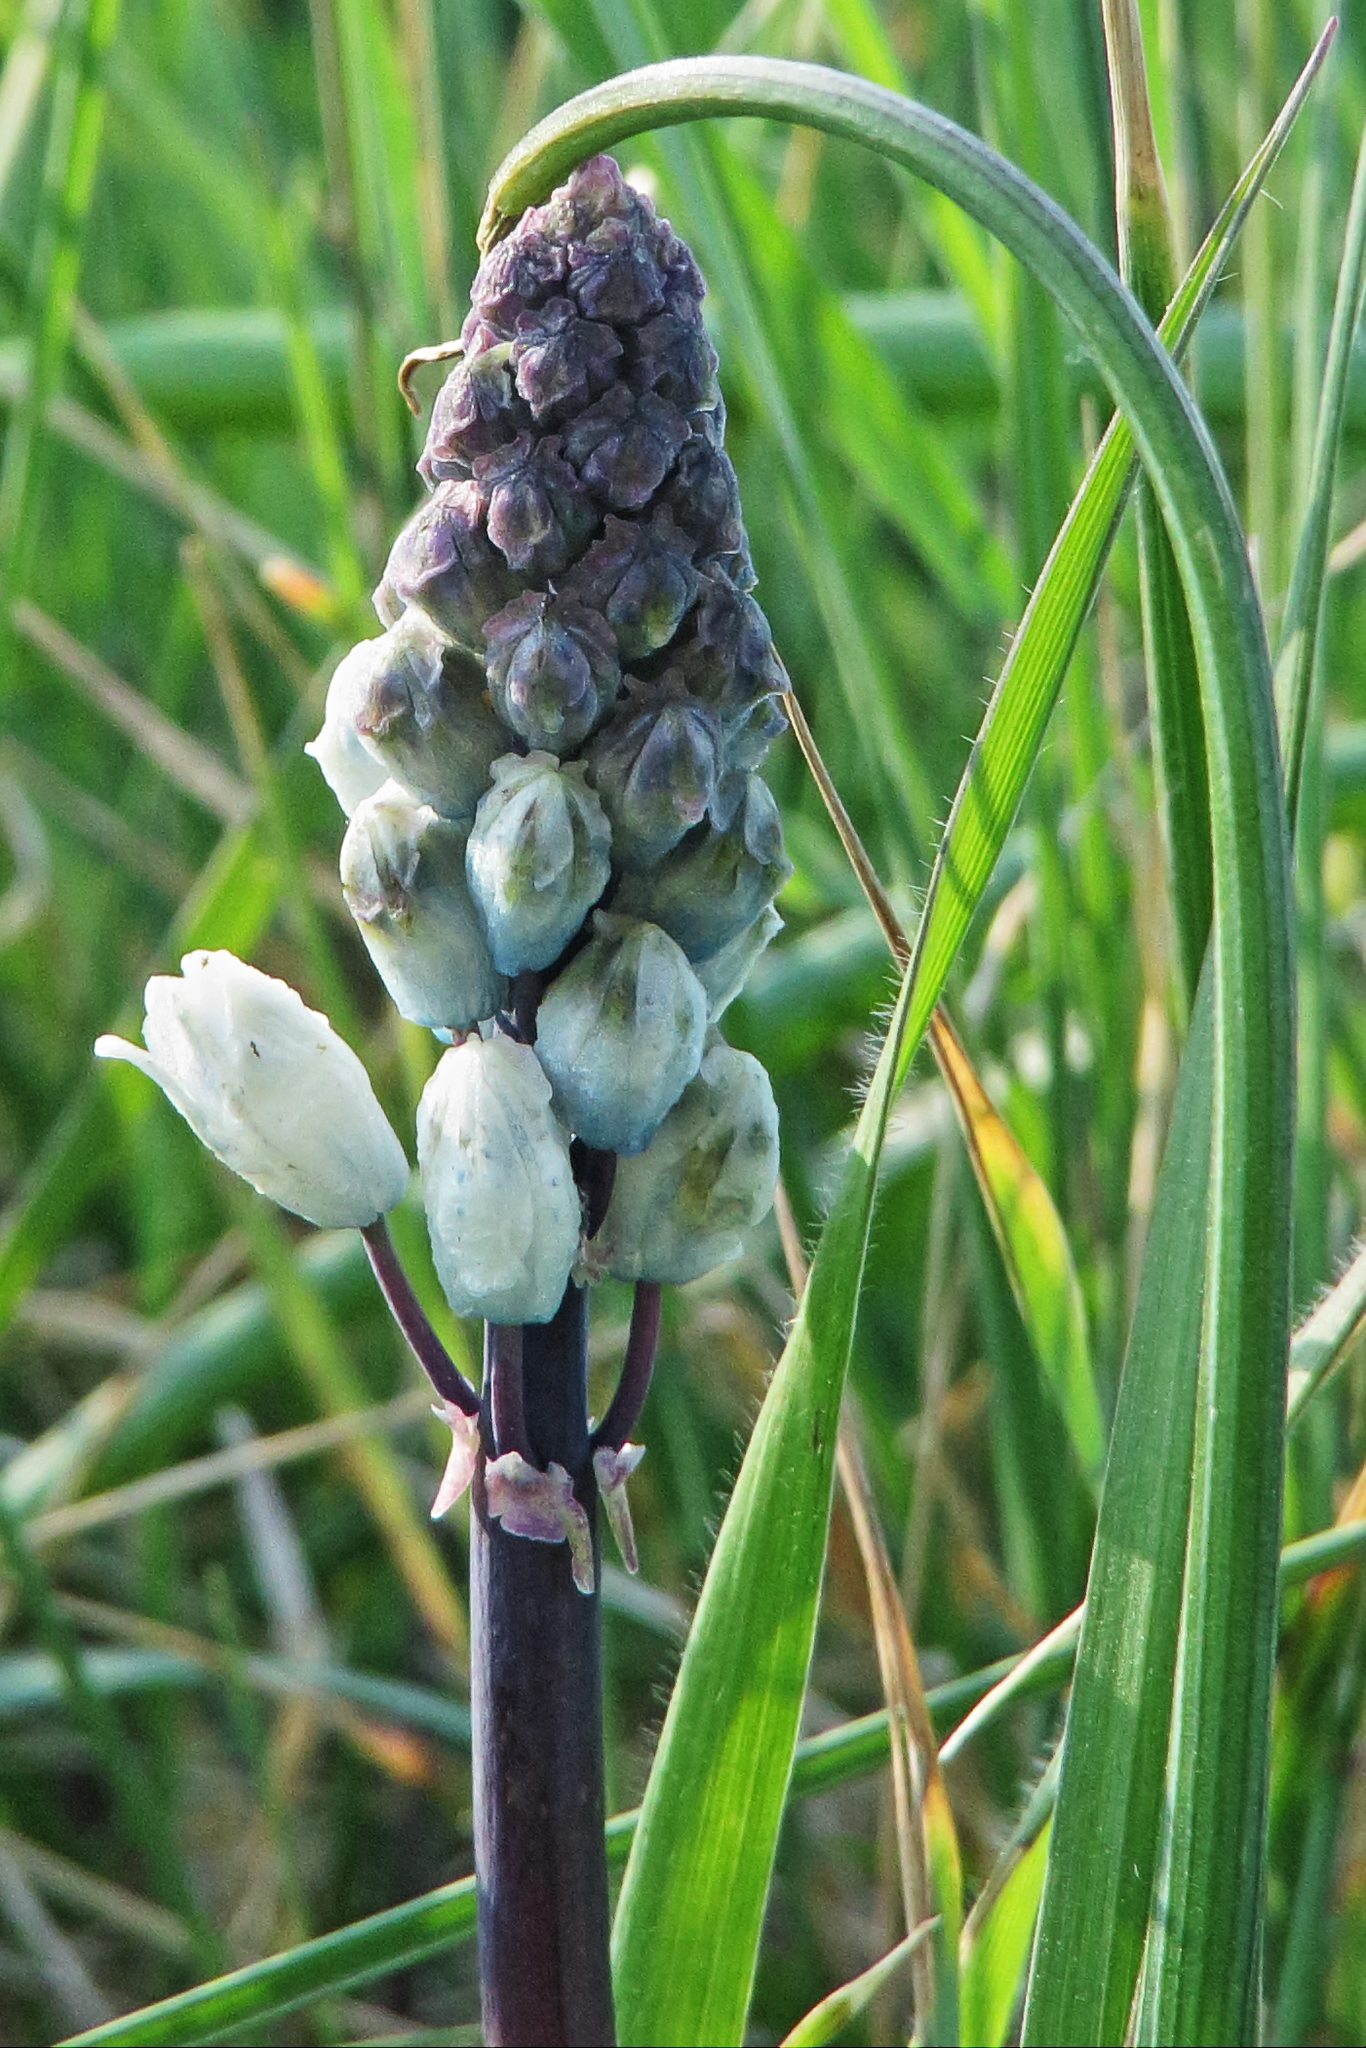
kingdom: Plantae
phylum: Tracheophyta
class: Liliopsida
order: Asparagales
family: Asparagaceae
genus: Bellevalia
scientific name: Bellevalia romana
